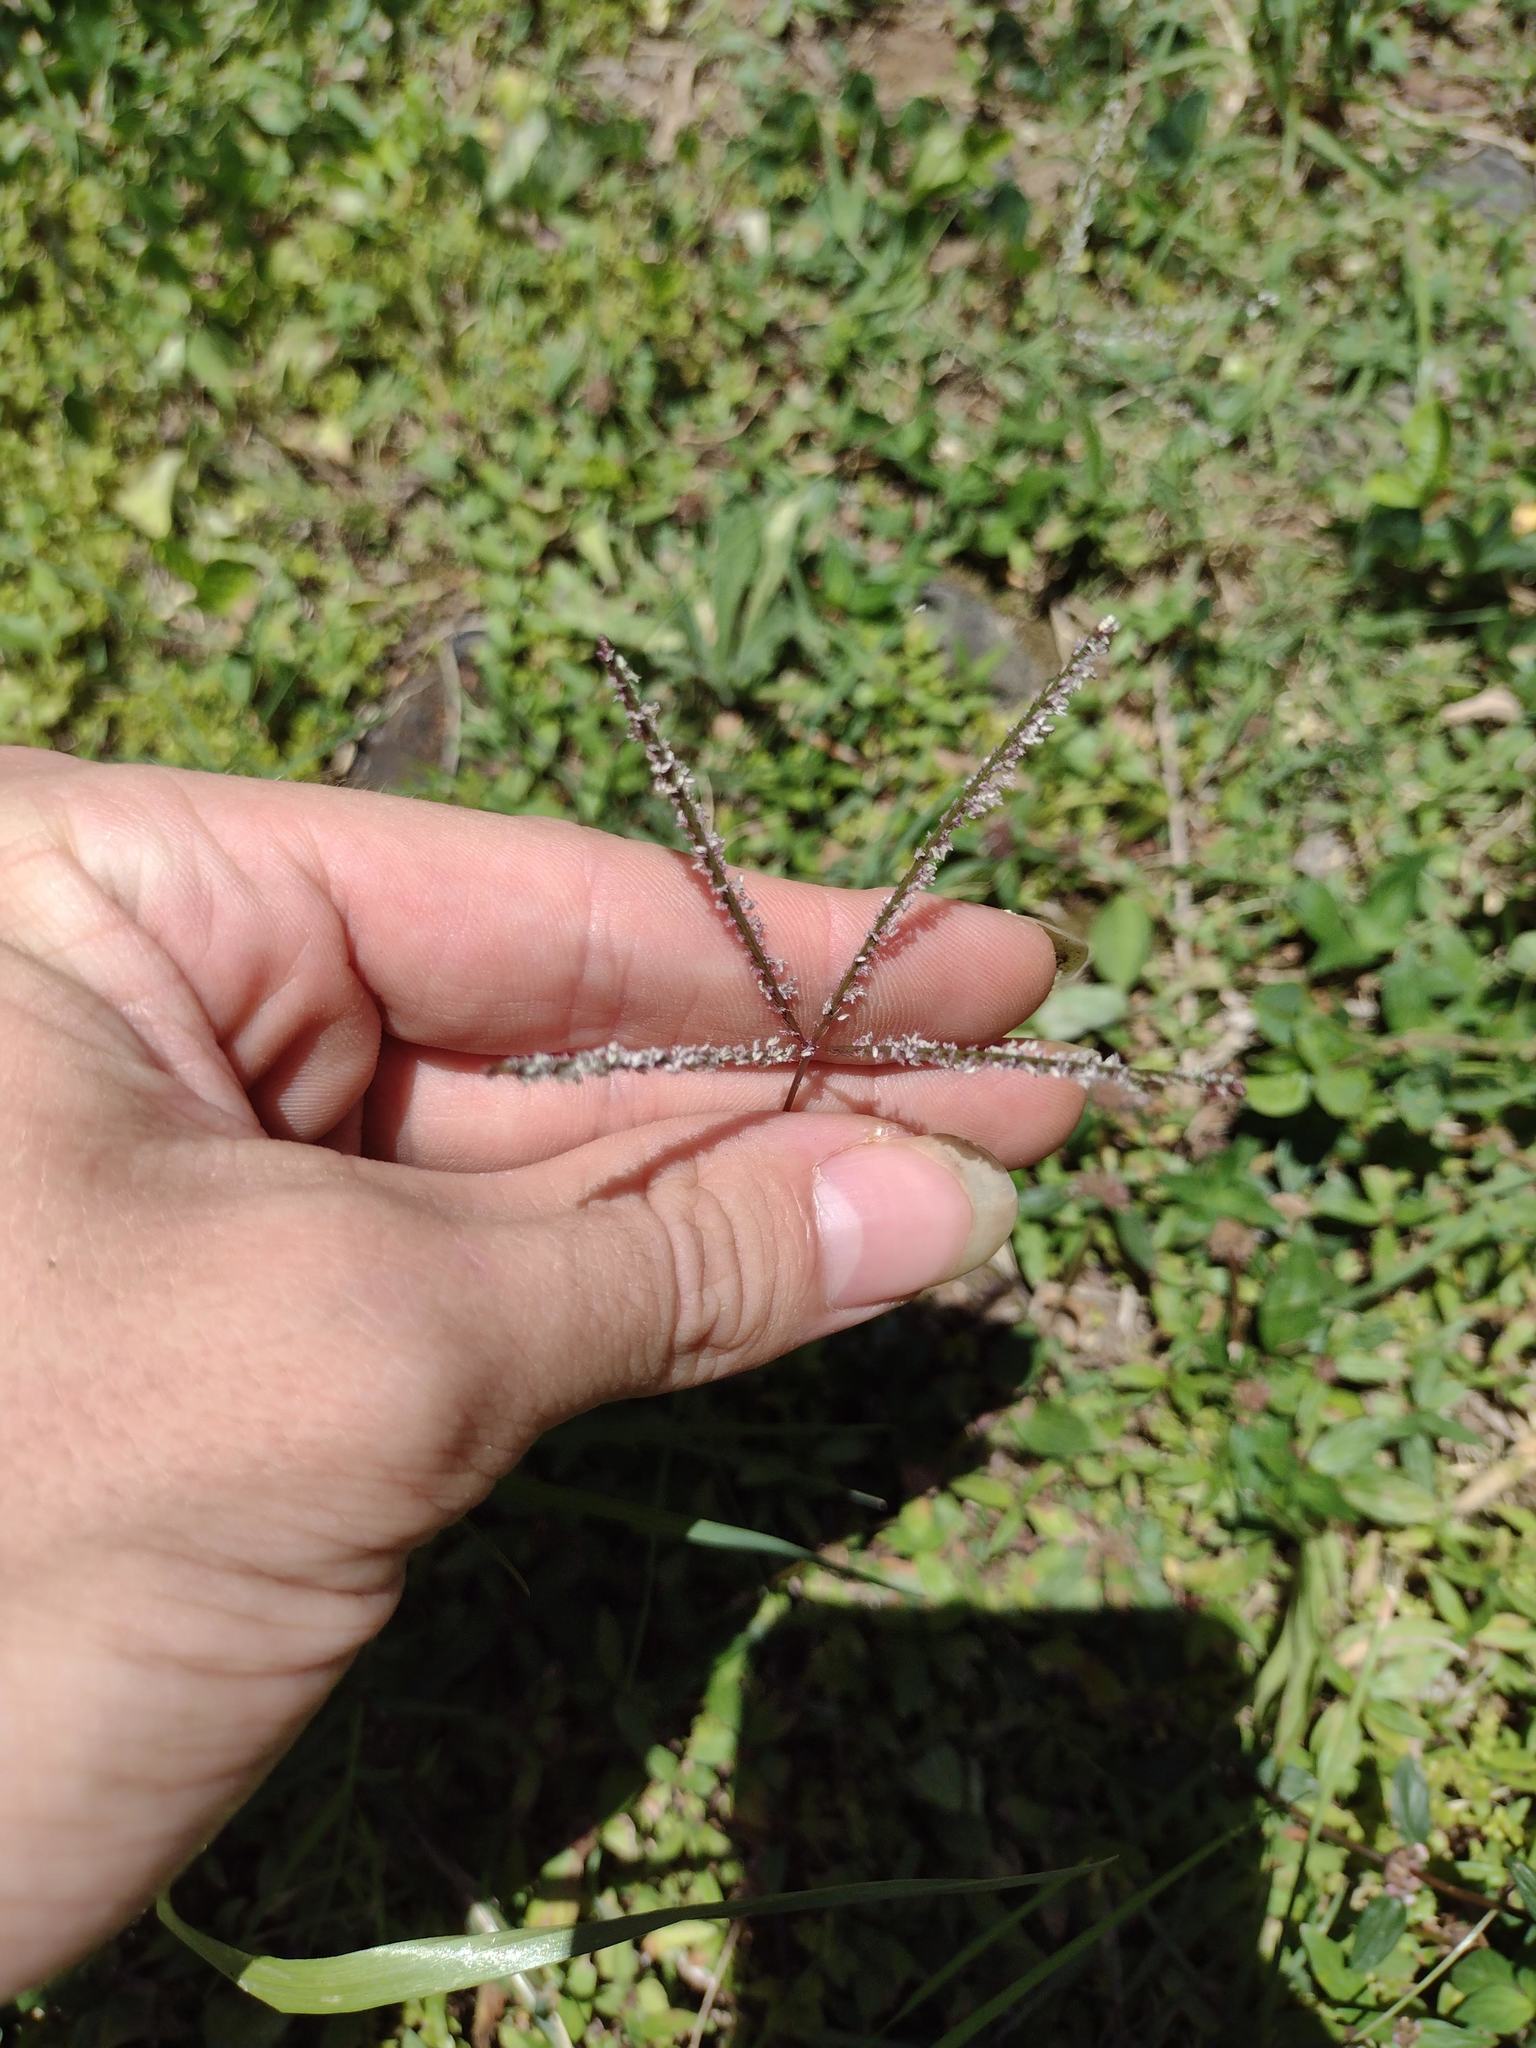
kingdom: Plantae
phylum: Tracheophyta
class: Liliopsida
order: Poales
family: Poaceae
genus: Cynodon
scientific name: Cynodon dactylon
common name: Bermuda grass
